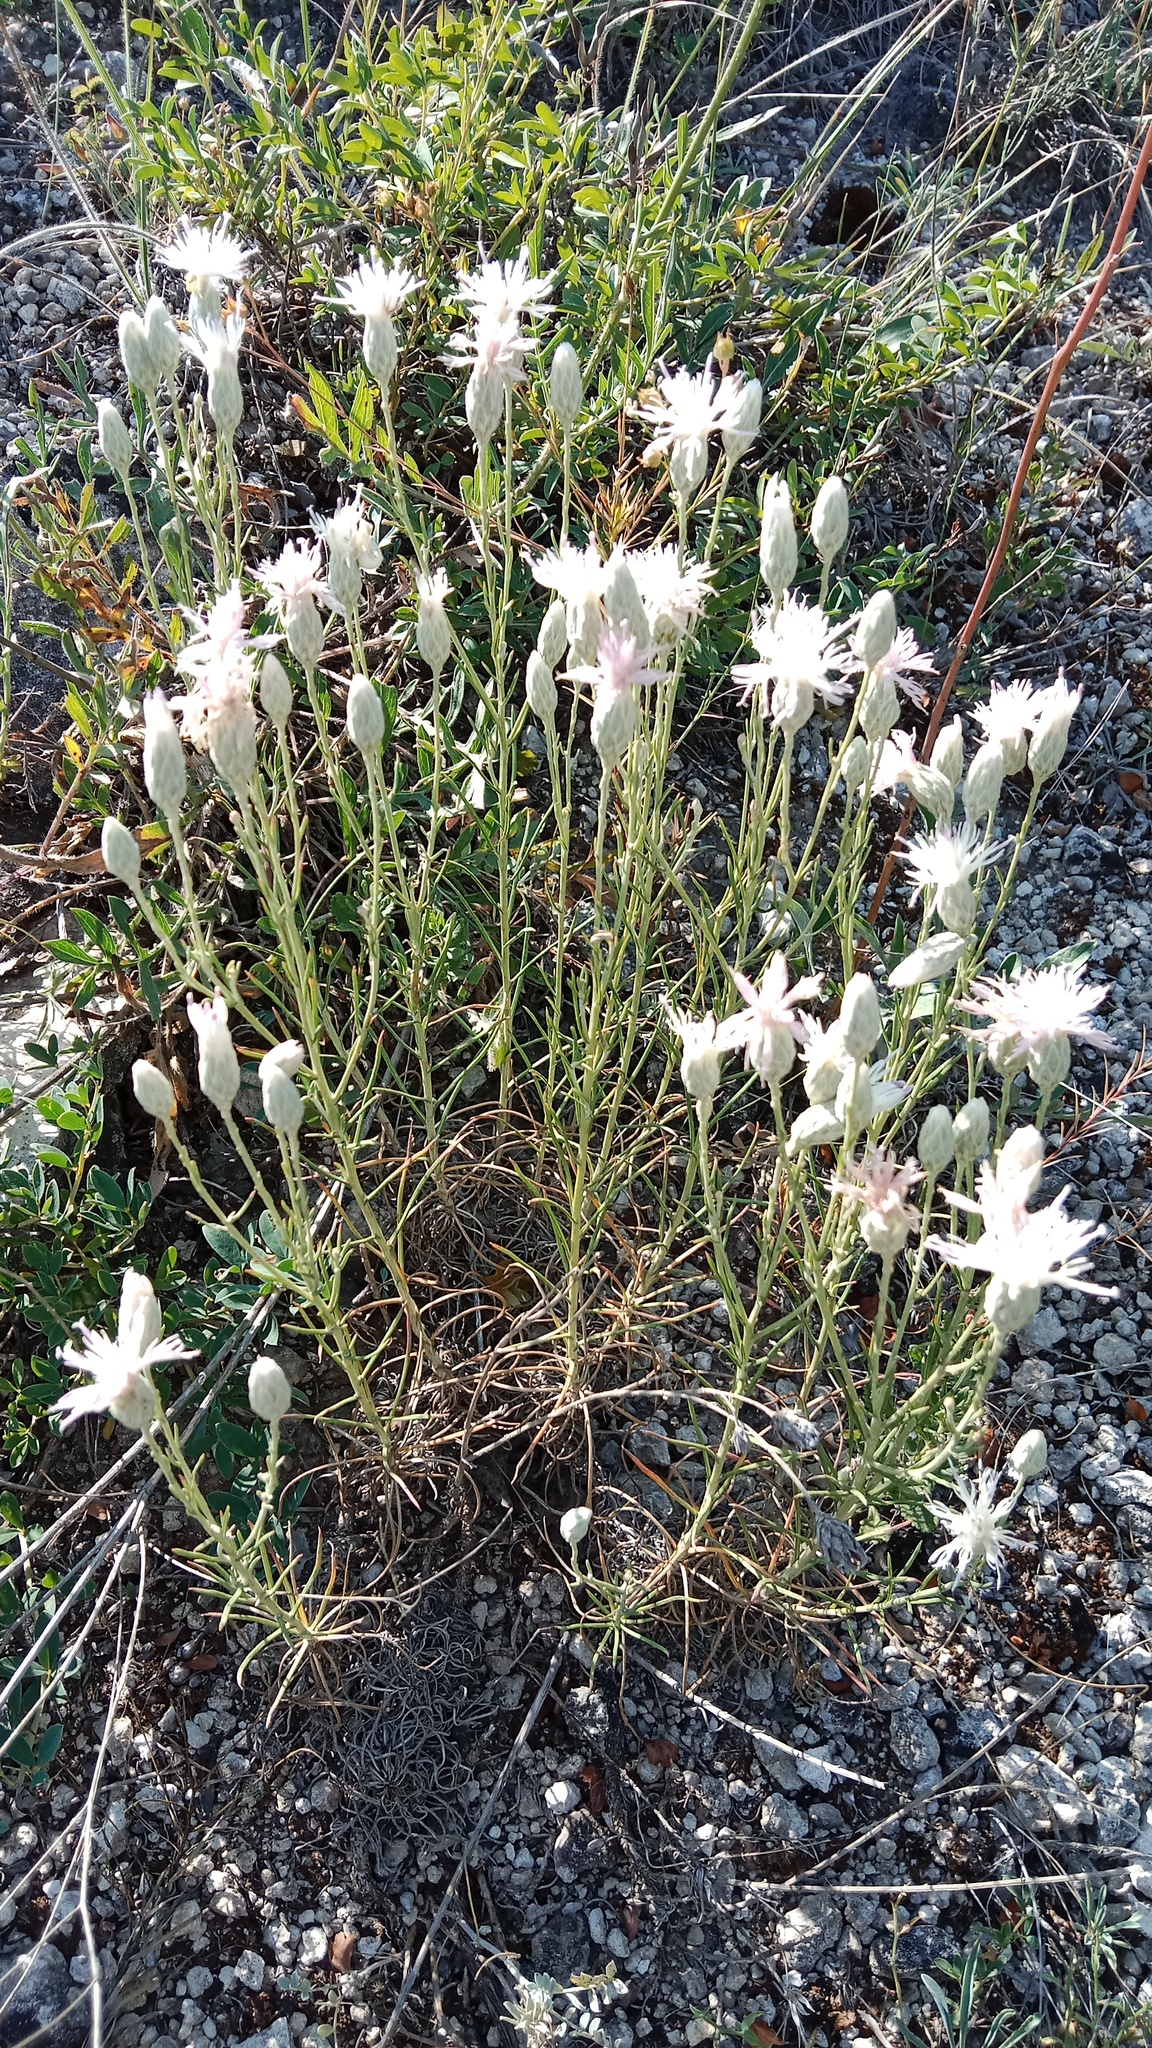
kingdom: Plantae
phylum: Tracheophyta
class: Magnoliopsida
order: Asterales
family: Asteraceae
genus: Jurinea
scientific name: Jurinea stoechadifolia
